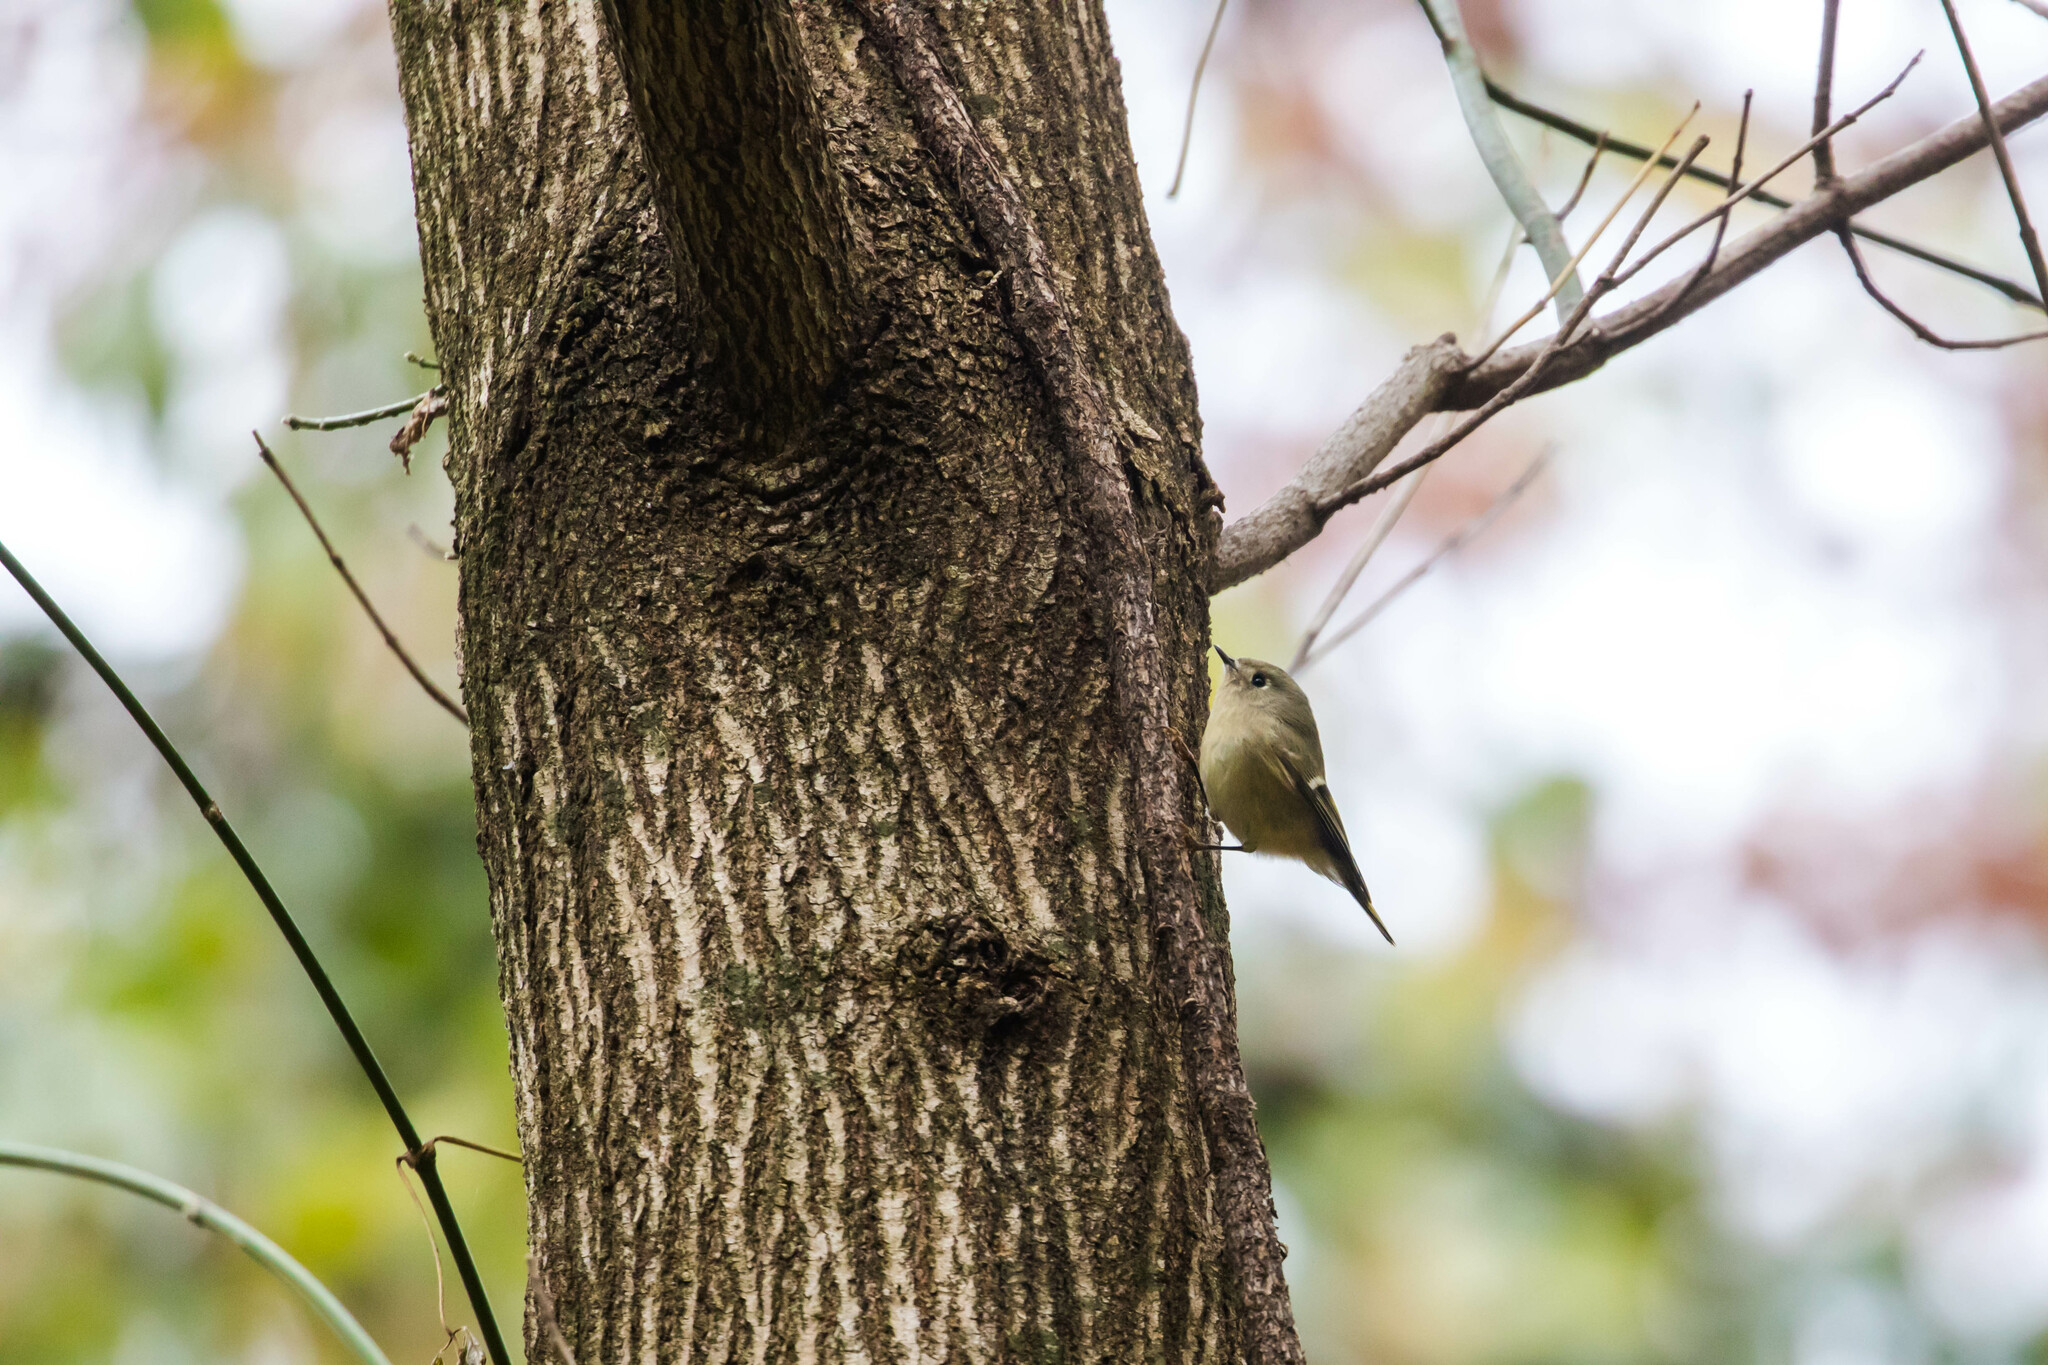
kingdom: Animalia
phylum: Chordata
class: Aves
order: Passeriformes
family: Regulidae
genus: Regulus
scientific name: Regulus calendula
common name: Ruby-crowned kinglet
